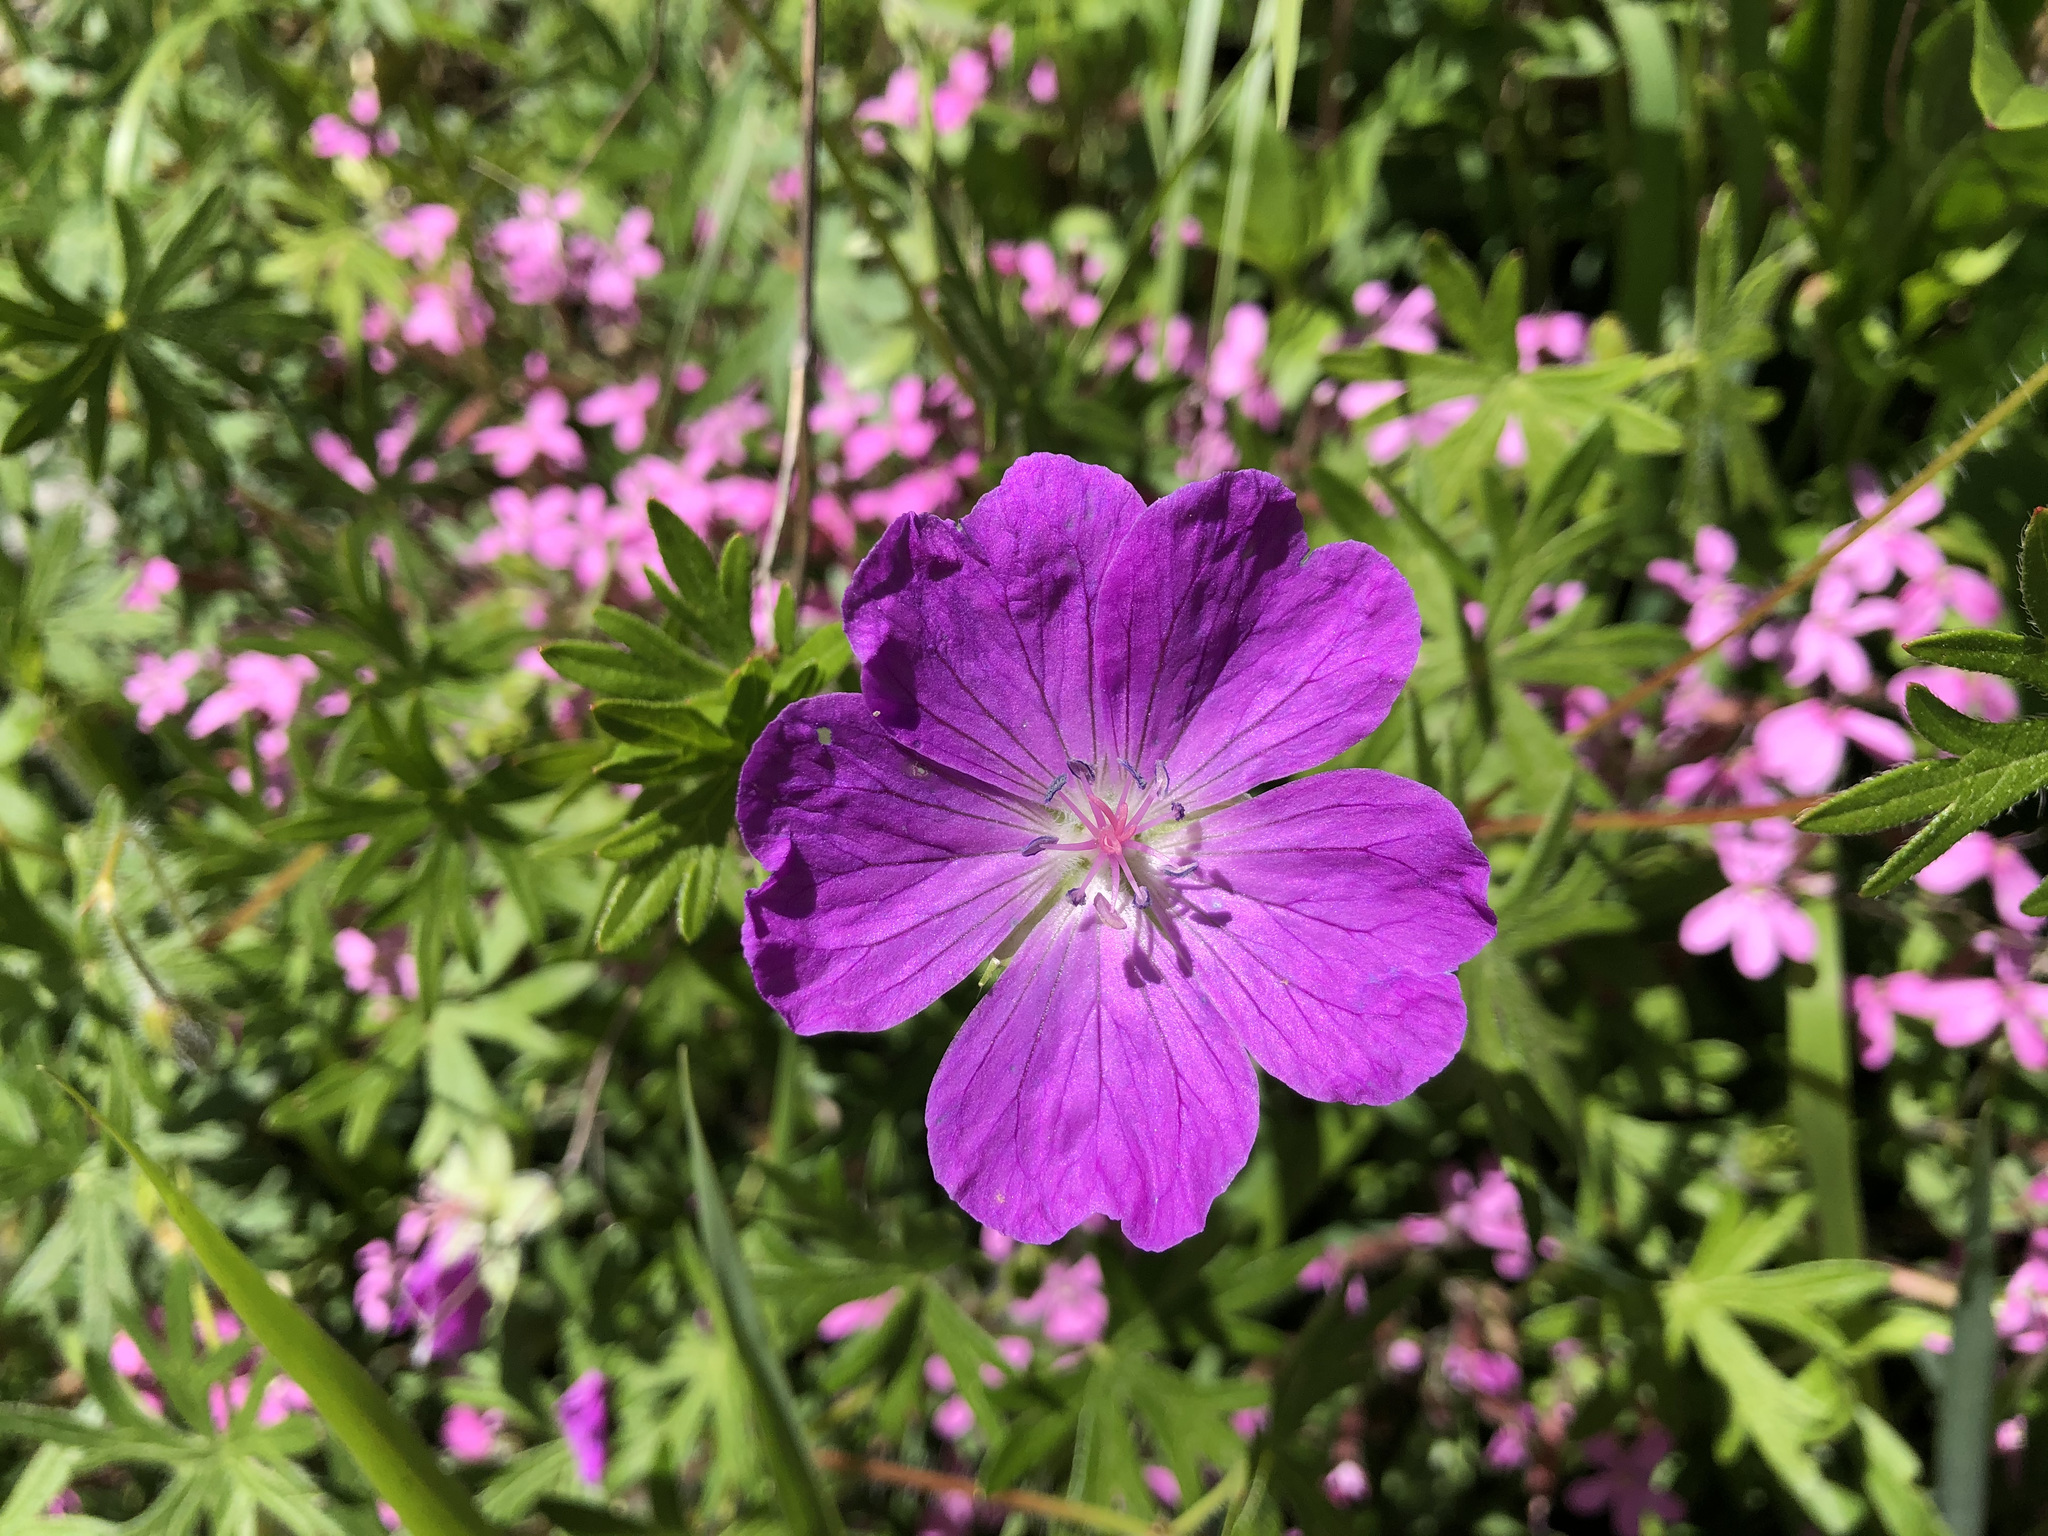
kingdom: Plantae
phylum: Tracheophyta
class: Magnoliopsida
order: Geraniales
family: Geraniaceae
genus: Geranium
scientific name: Geranium sanguineum
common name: Bloody crane's-bill
